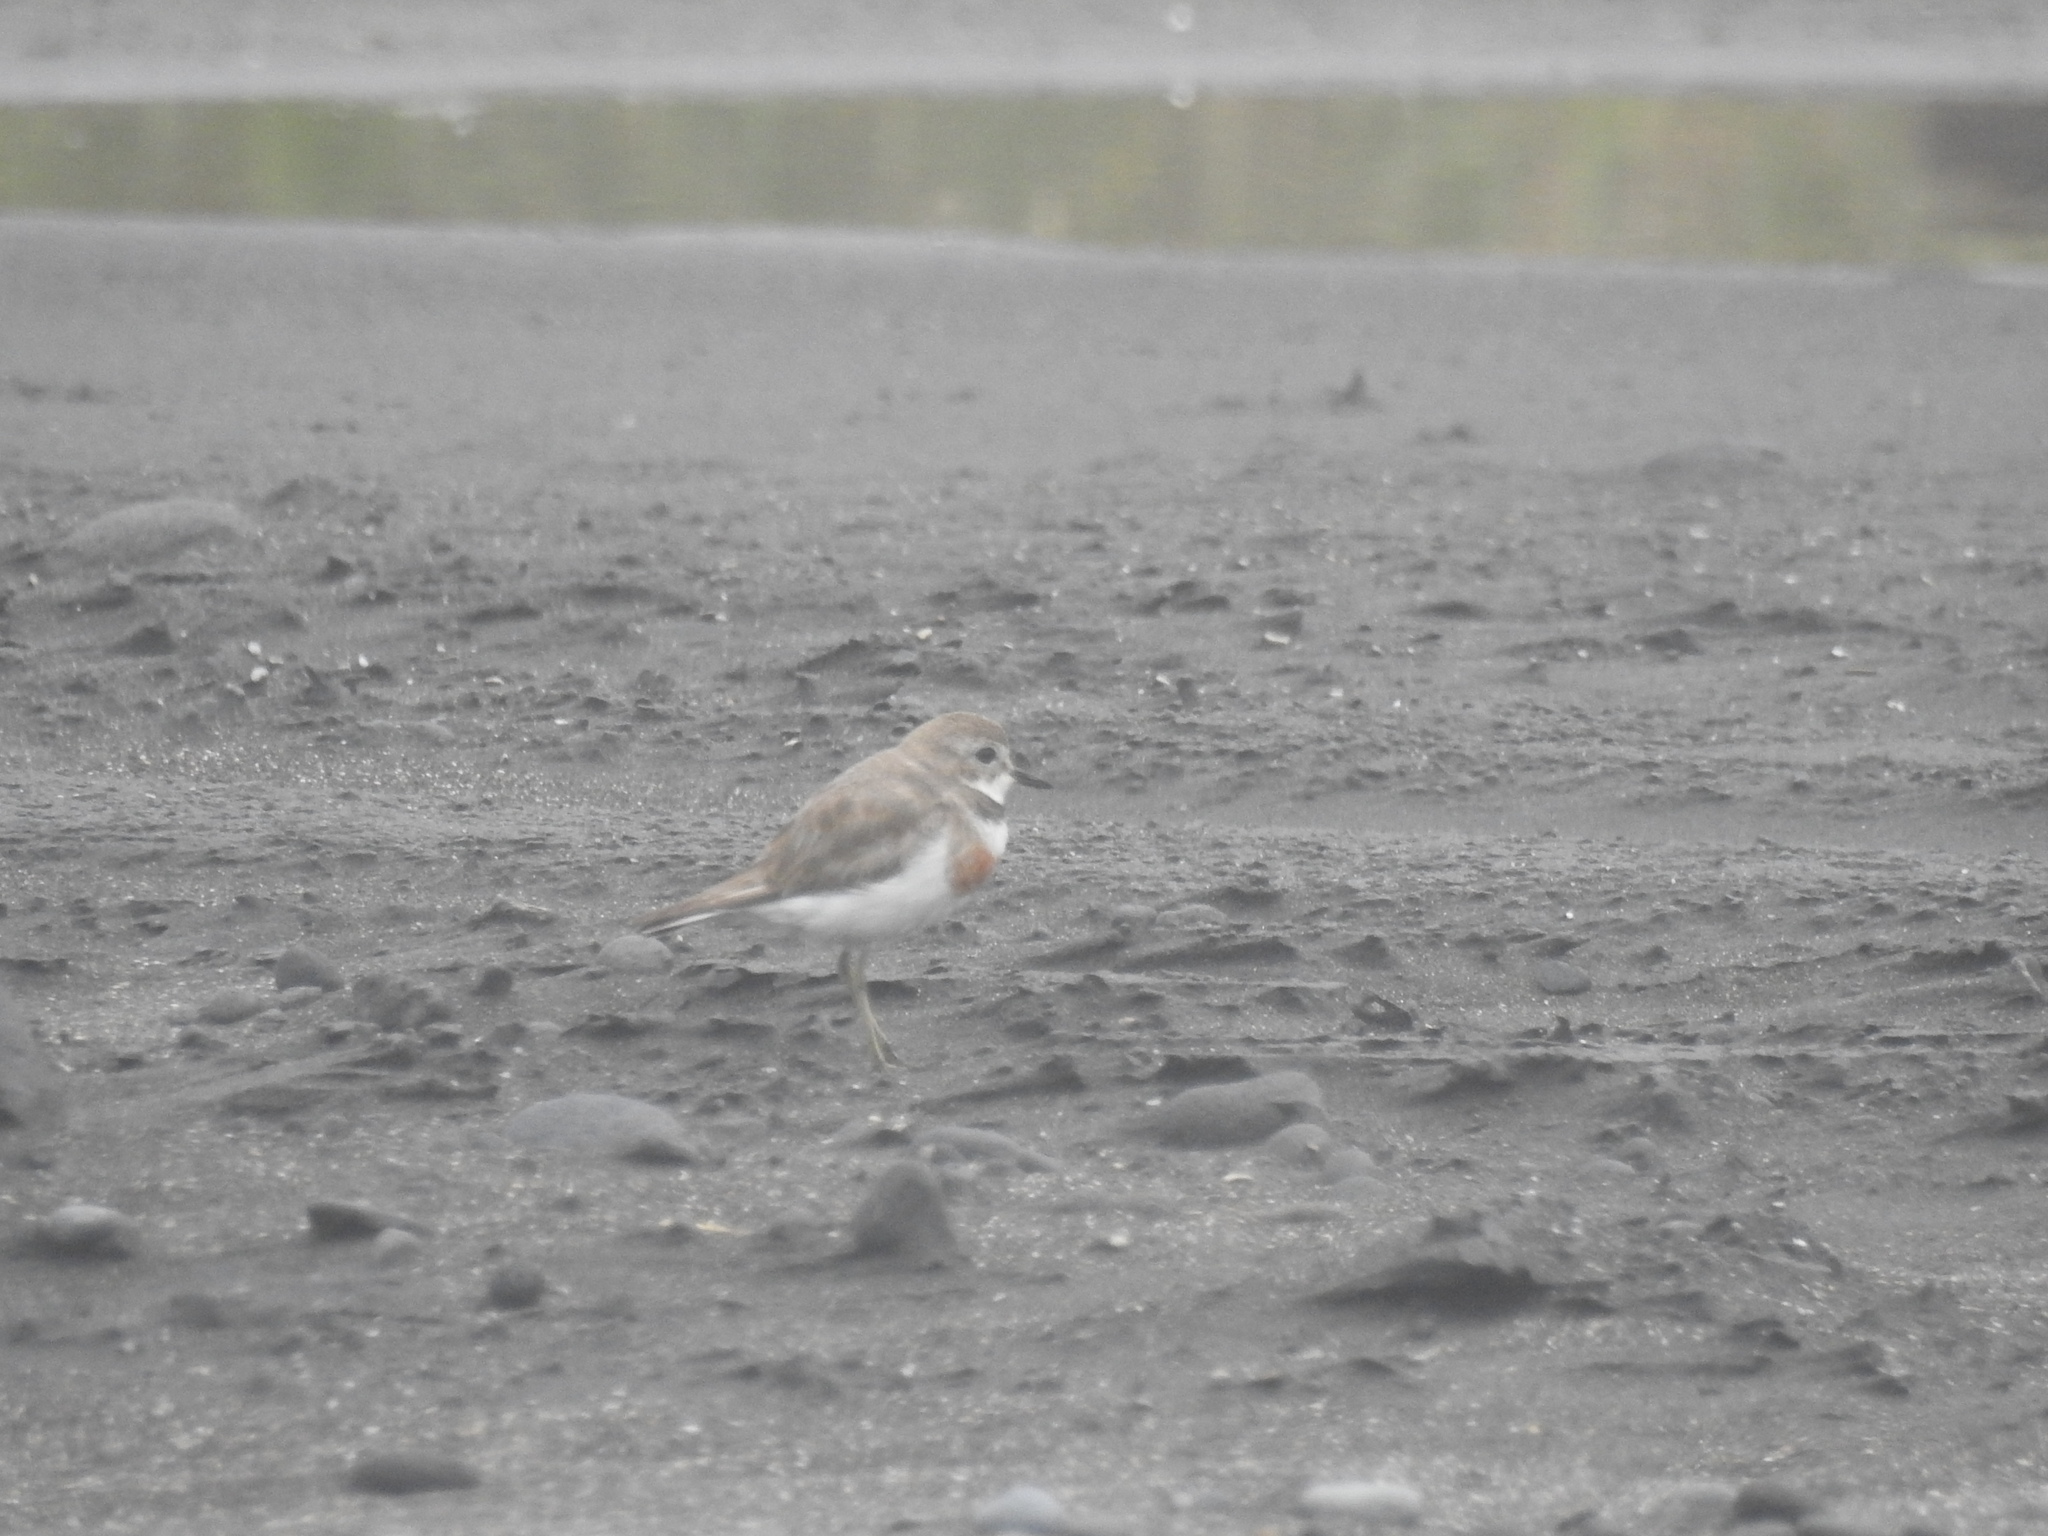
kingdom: Animalia
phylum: Chordata
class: Aves
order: Charadriiformes
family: Charadriidae
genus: Anarhynchus
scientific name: Anarhynchus
